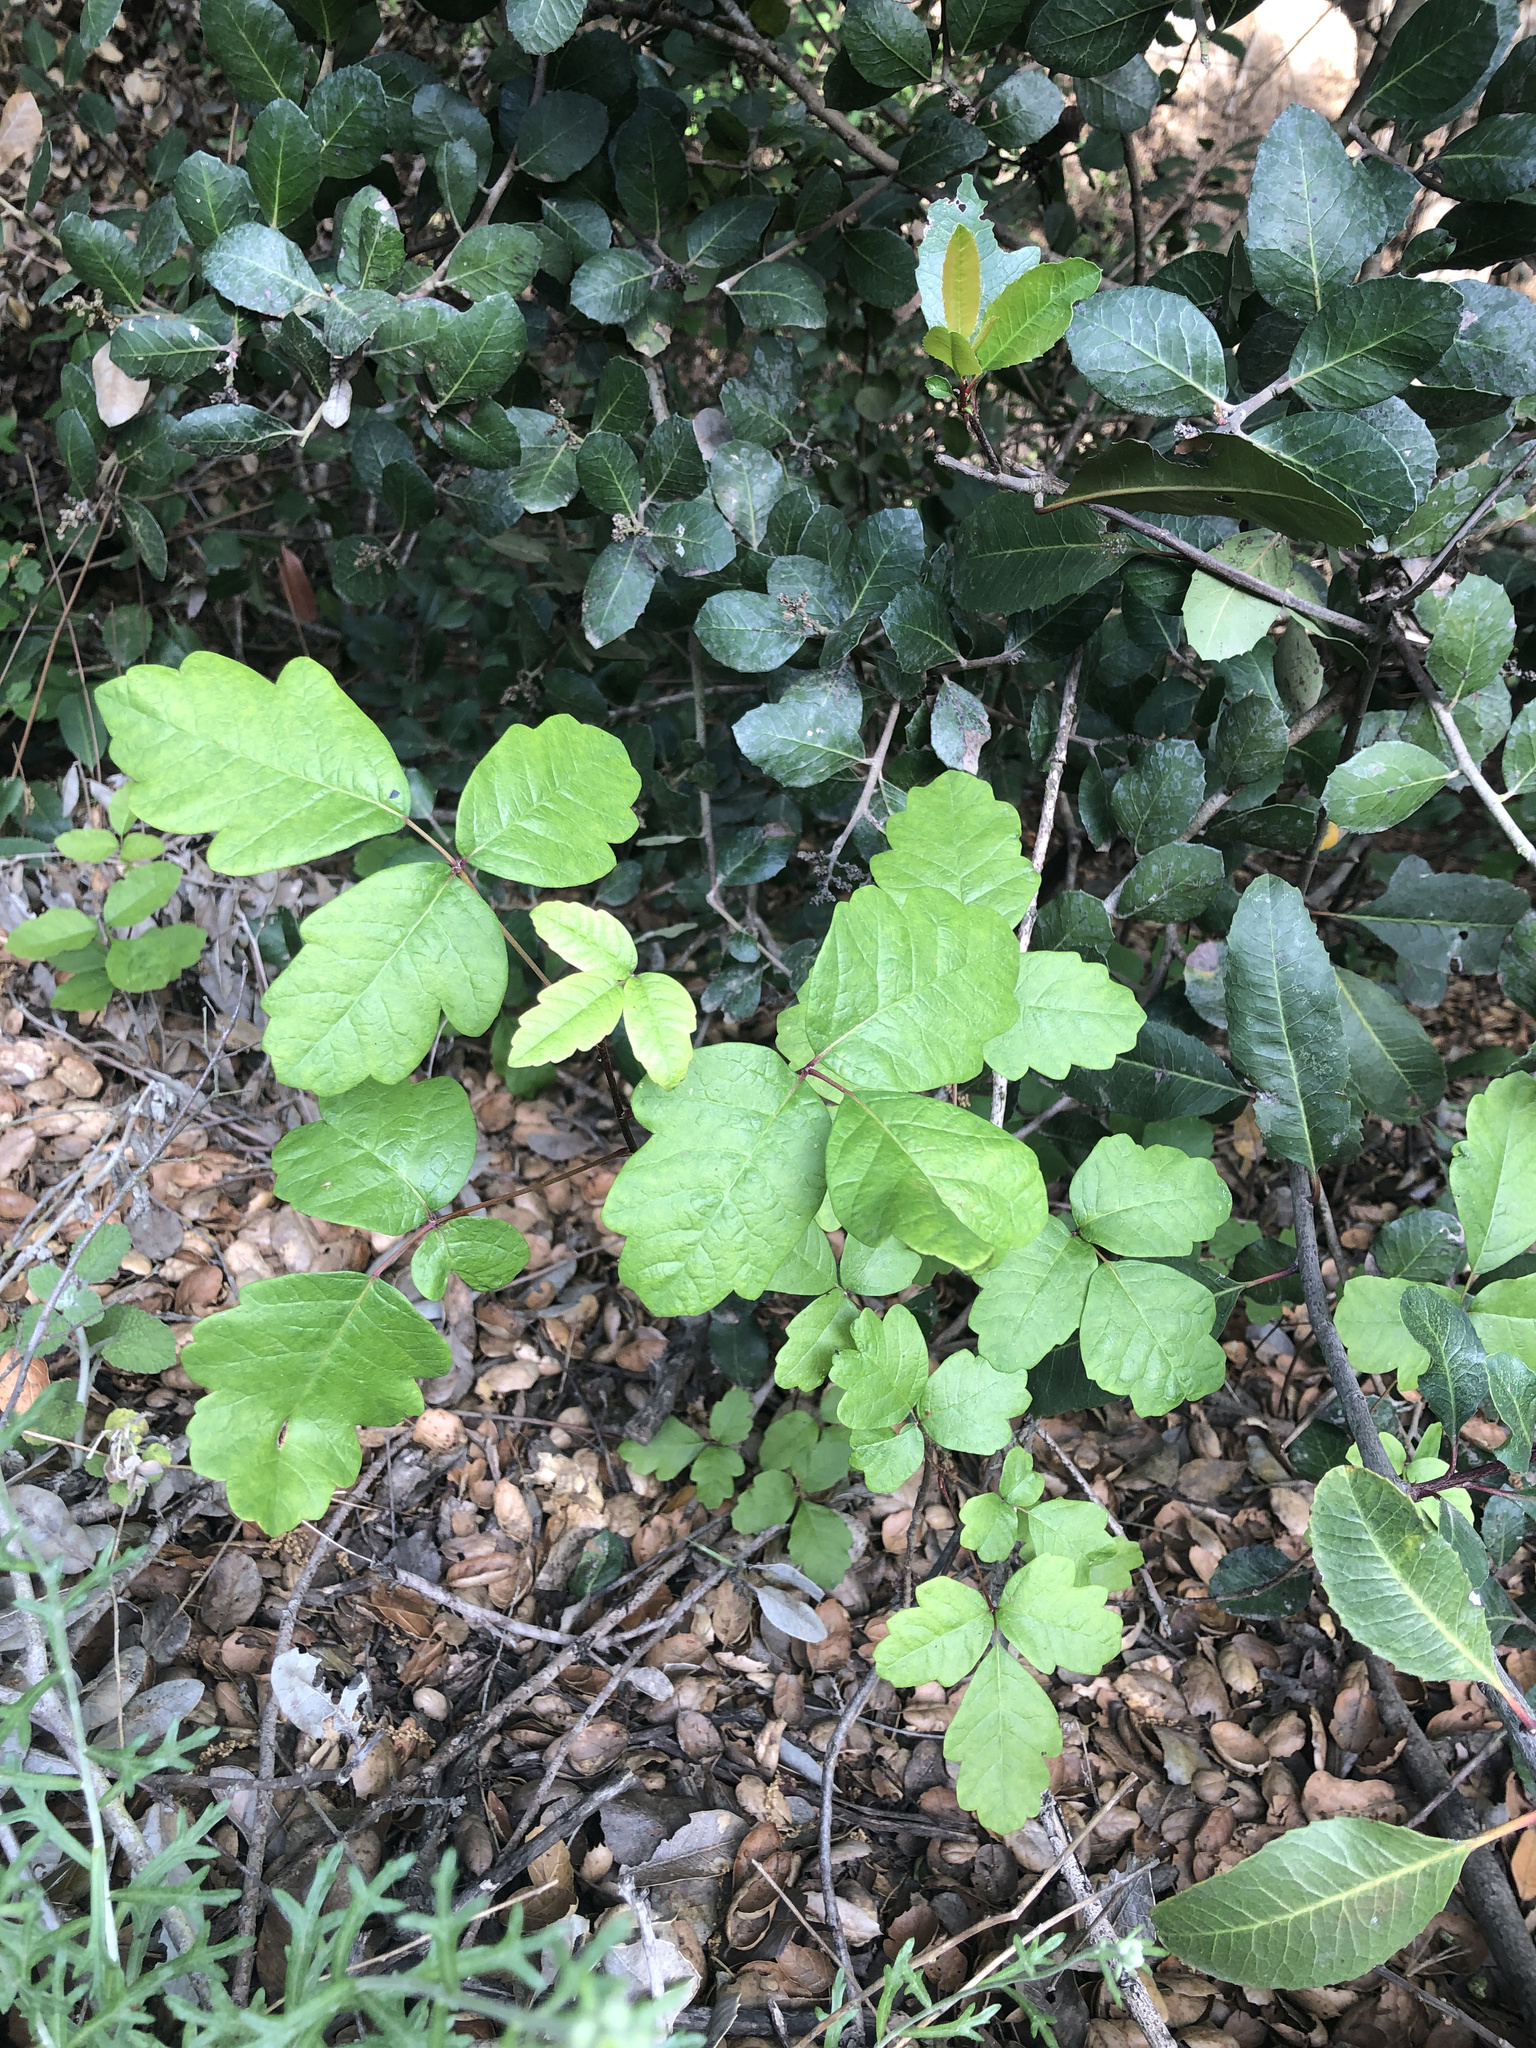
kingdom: Plantae
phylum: Tracheophyta
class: Magnoliopsida
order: Sapindales
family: Anacardiaceae
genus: Toxicodendron
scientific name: Toxicodendron diversilobum
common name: Pacific poison-oak
